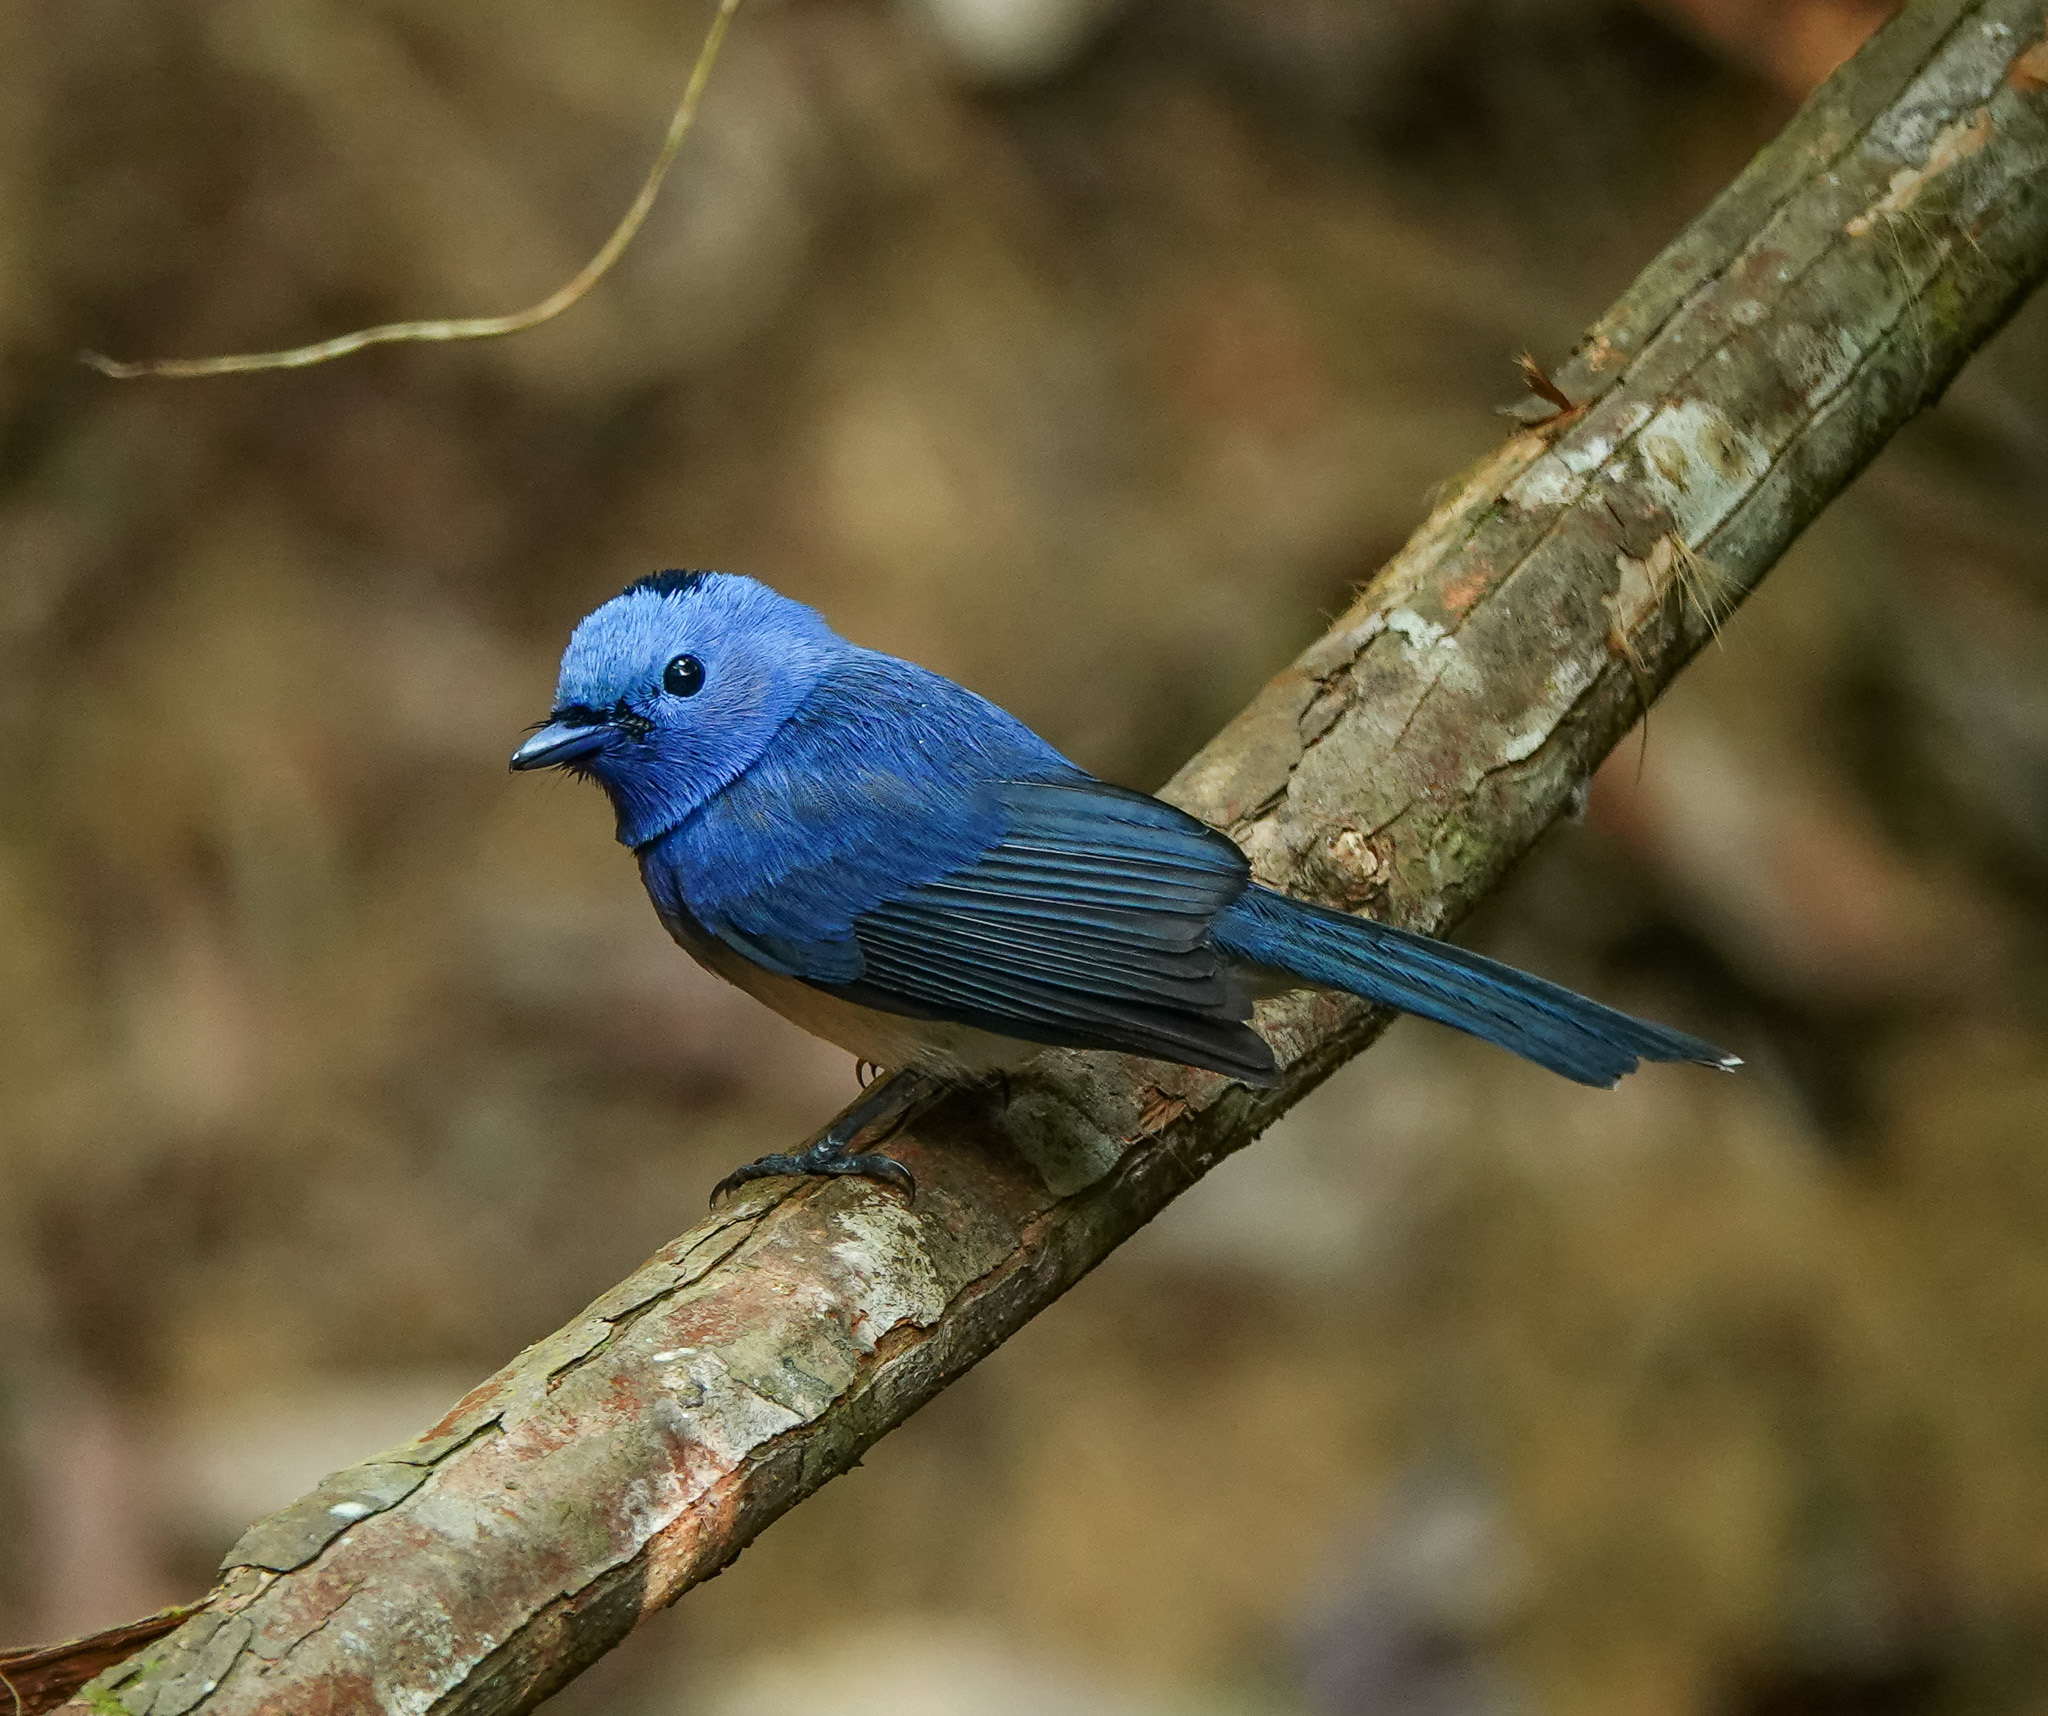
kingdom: Animalia
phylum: Chordata
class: Aves
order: Passeriformes
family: Monarchidae
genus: Hypothymis
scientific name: Hypothymis azurea
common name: Black-naped monarch
